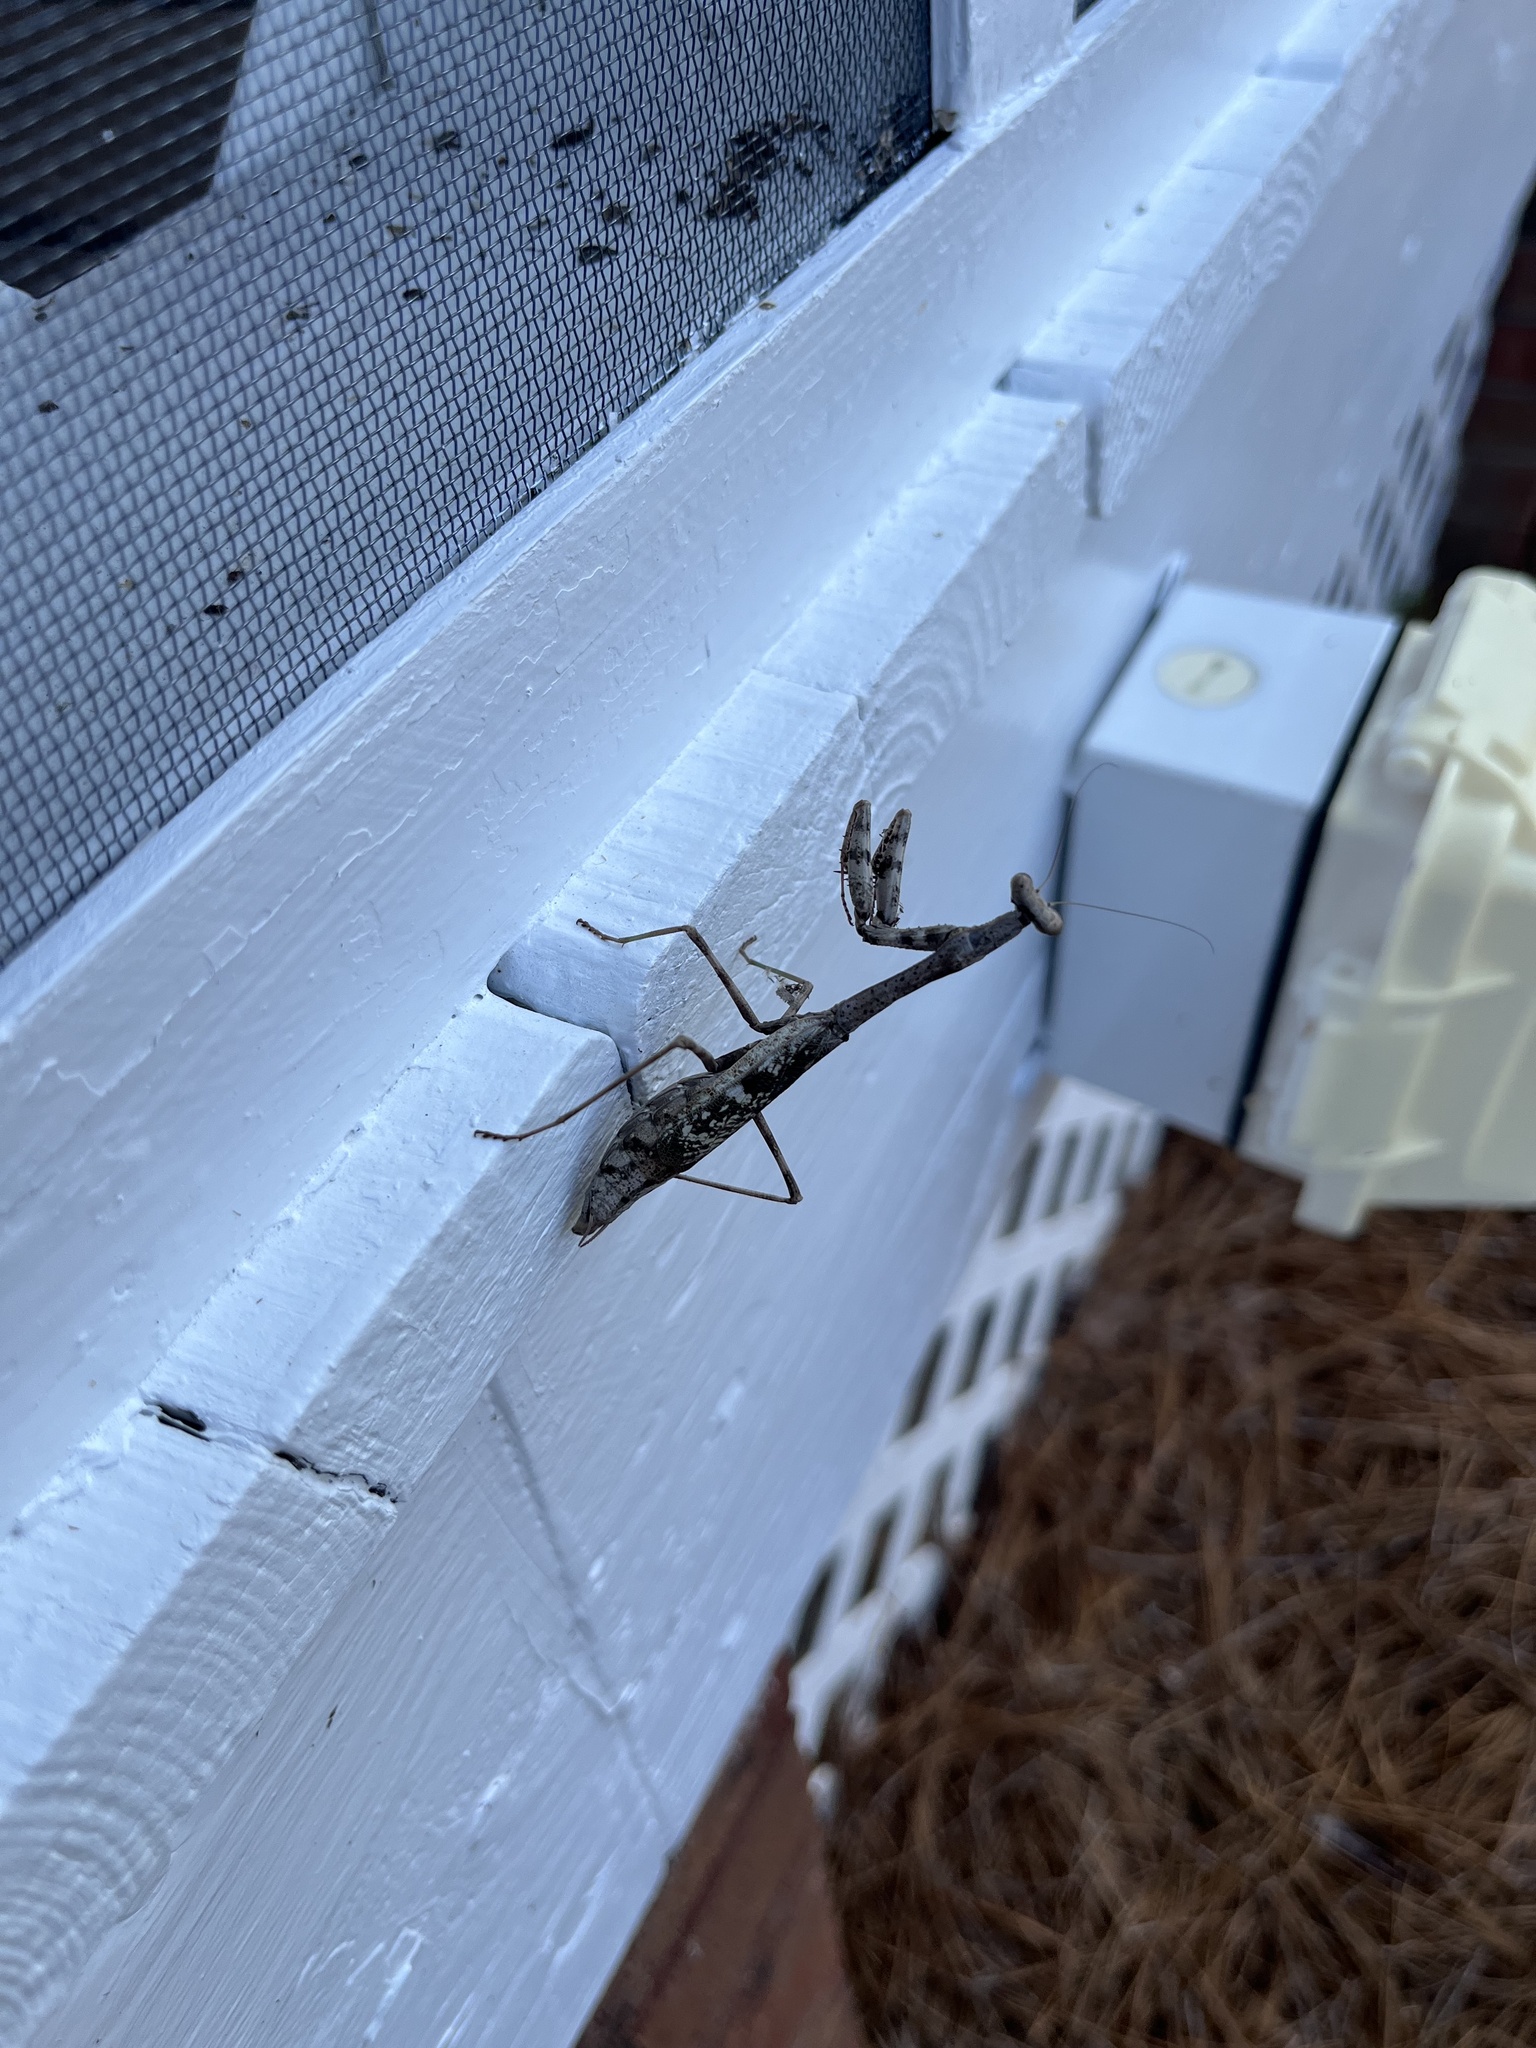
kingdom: Animalia
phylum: Arthropoda
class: Insecta
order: Mantodea
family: Mantidae
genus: Stagmomantis
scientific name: Stagmomantis carolina
